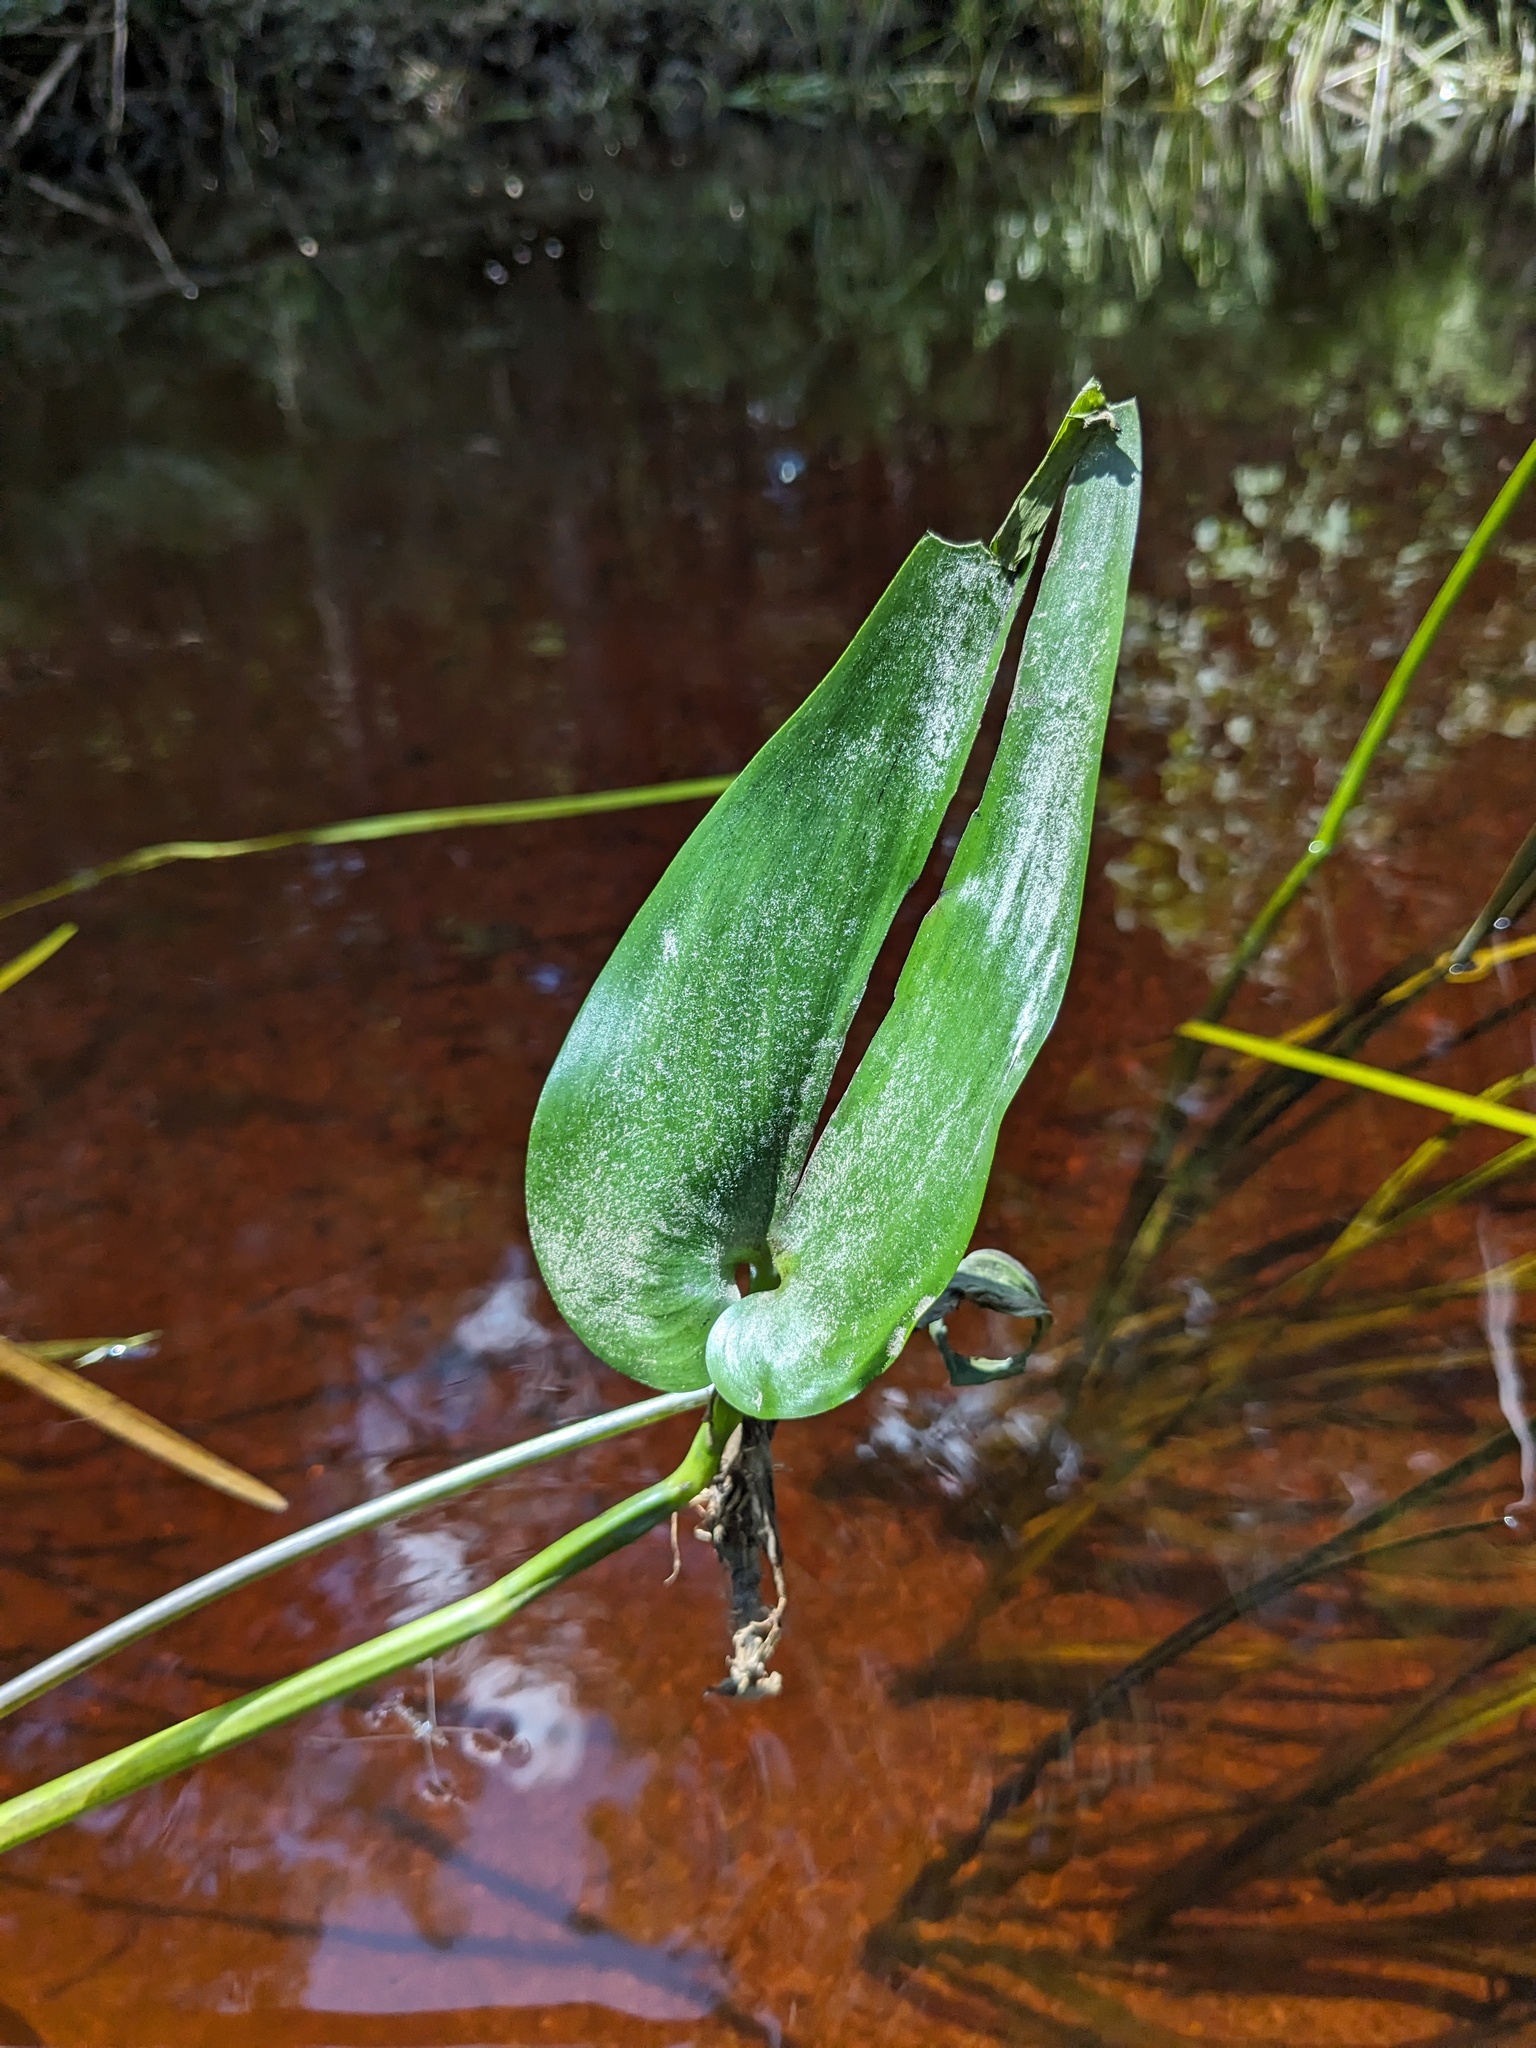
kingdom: Plantae
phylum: Tracheophyta
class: Liliopsida
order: Commelinales
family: Pontederiaceae
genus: Pontederia
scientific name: Pontederia cordata
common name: Pickerelweed
